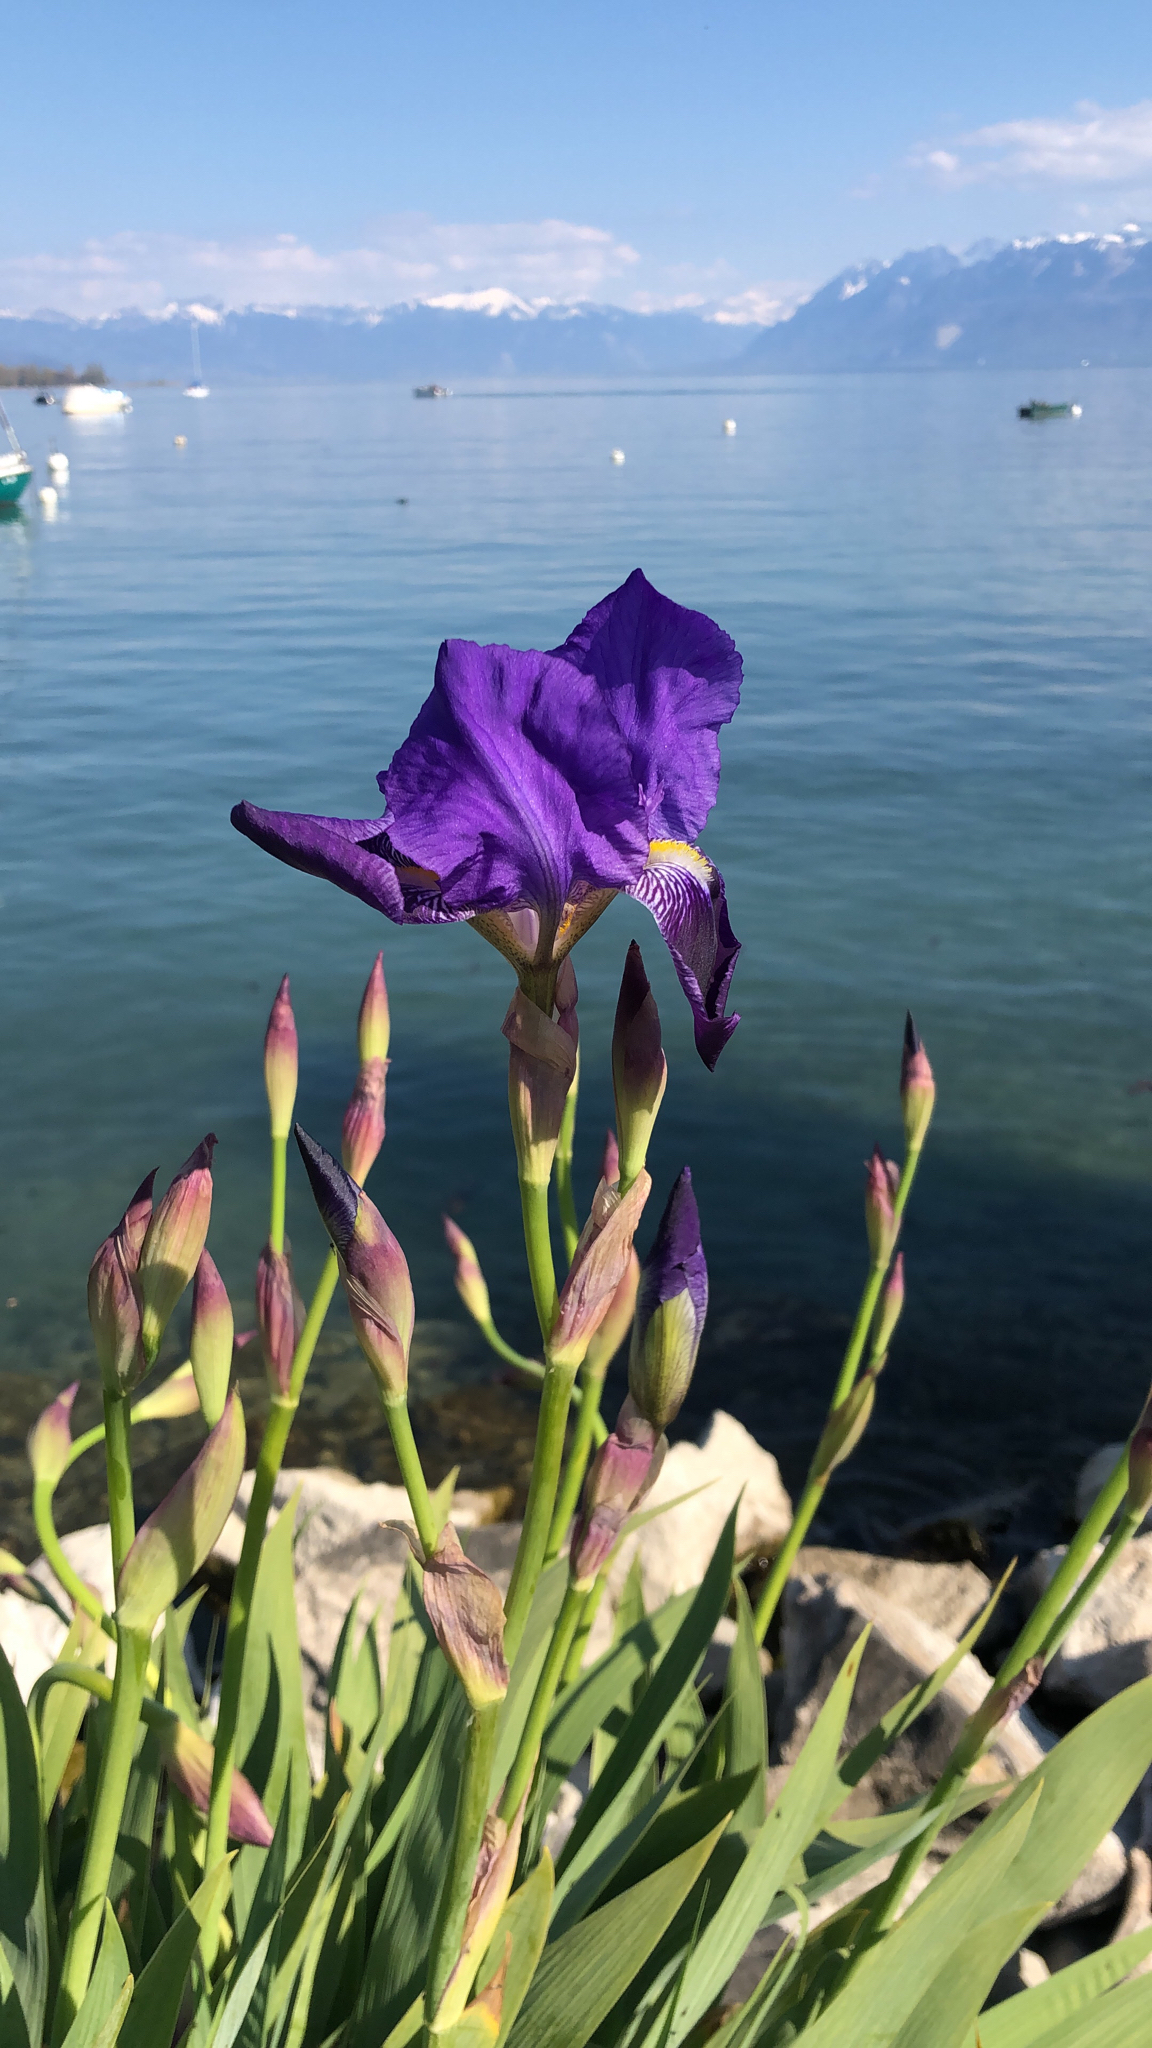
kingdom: Plantae
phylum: Tracheophyta
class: Liliopsida
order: Asparagales
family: Iridaceae
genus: Iris
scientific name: Iris germanica
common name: German iris
